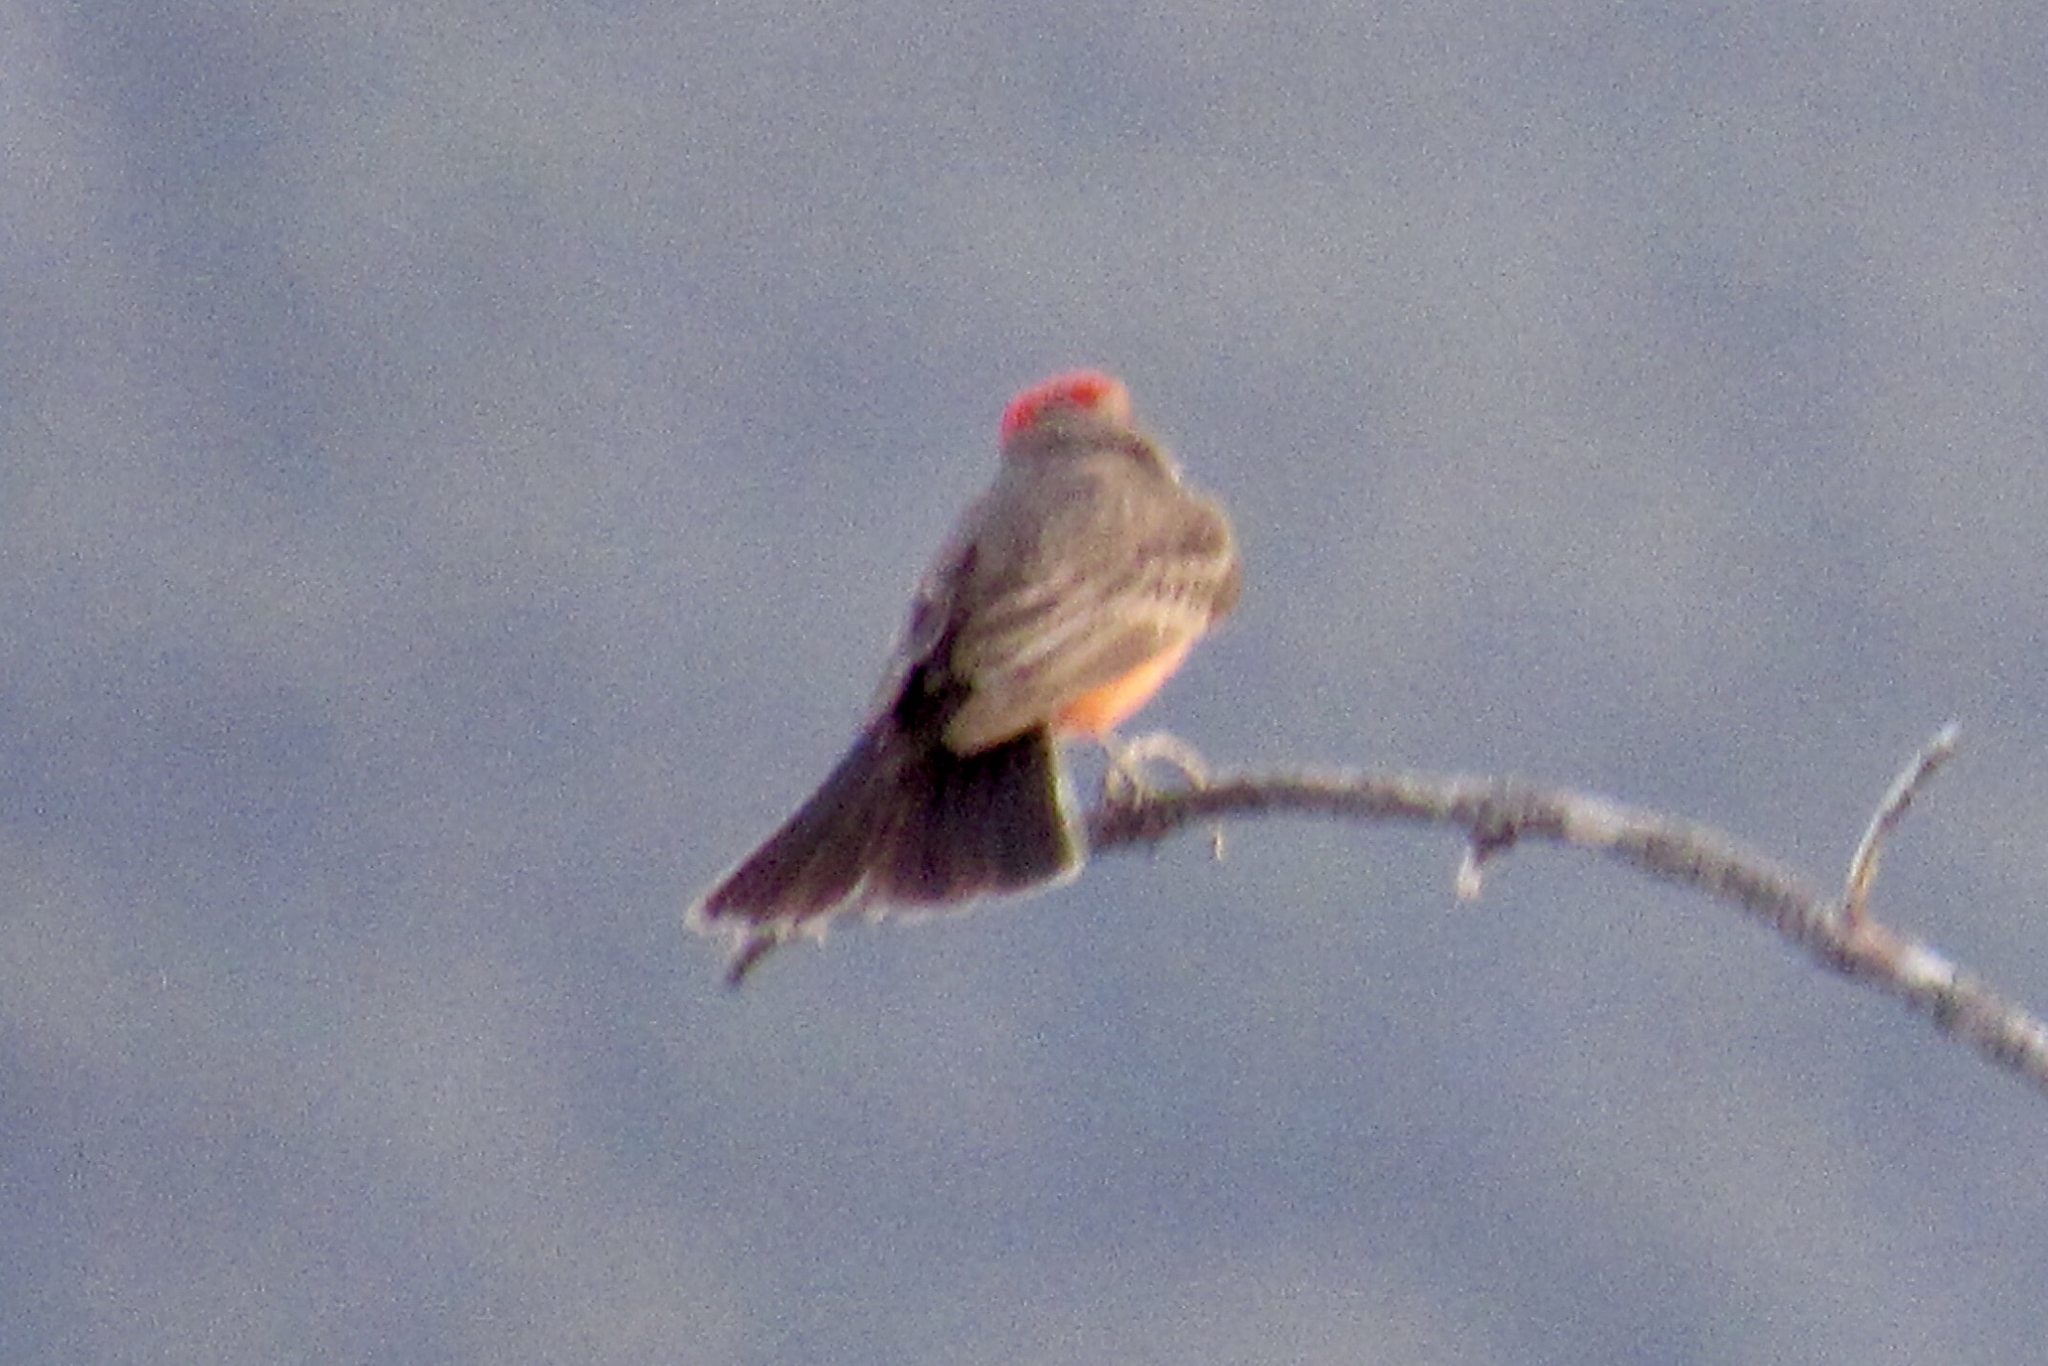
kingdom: Animalia
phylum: Chordata
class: Aves
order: Passeriformes
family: Tyrannidae
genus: Pyrocephalus
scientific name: Pyrocephalus rubinus
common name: Vermilion flycatcher
